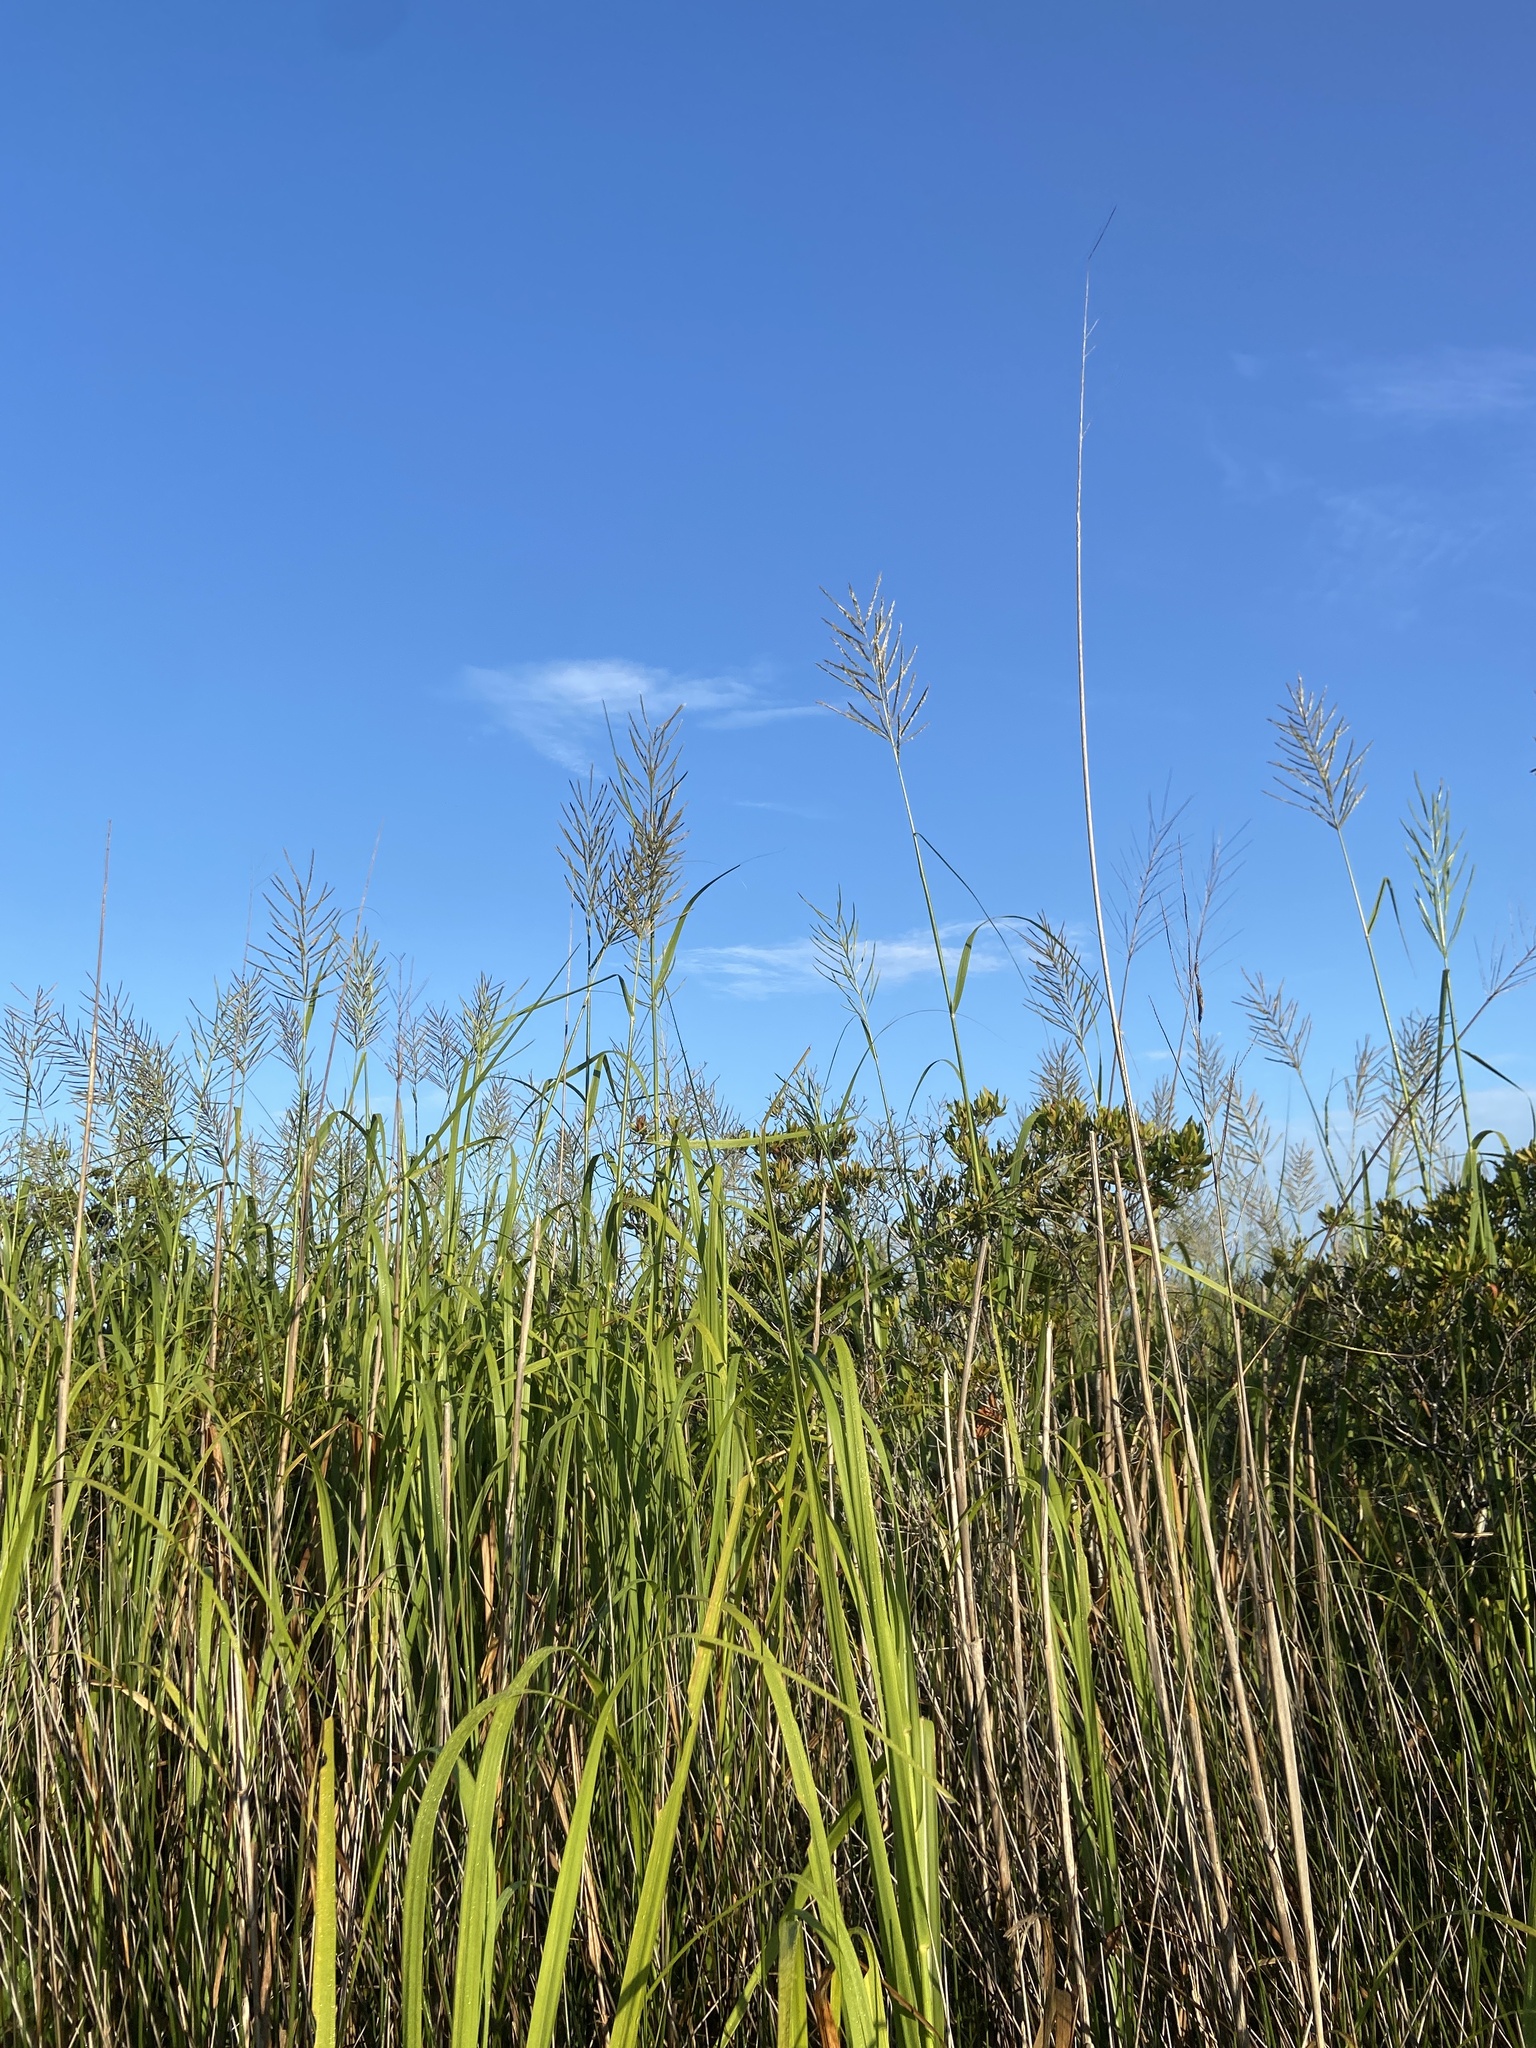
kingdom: Plantae
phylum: Tracheophyta
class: Liliopsida
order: Poales
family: Poaceae
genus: Sporobolus
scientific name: Sporobolus cynosuroides
